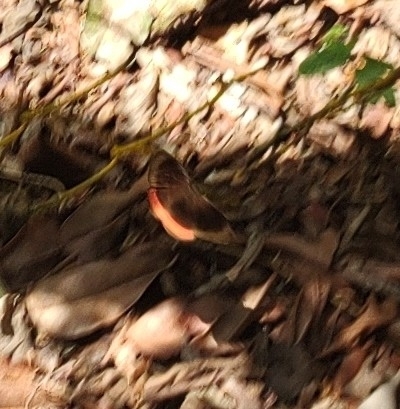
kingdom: Animalia
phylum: Arthropoda
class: Insecta
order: Lepidoptera
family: Sesiidae
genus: Sesia
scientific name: Sesia Biblis hyperia
